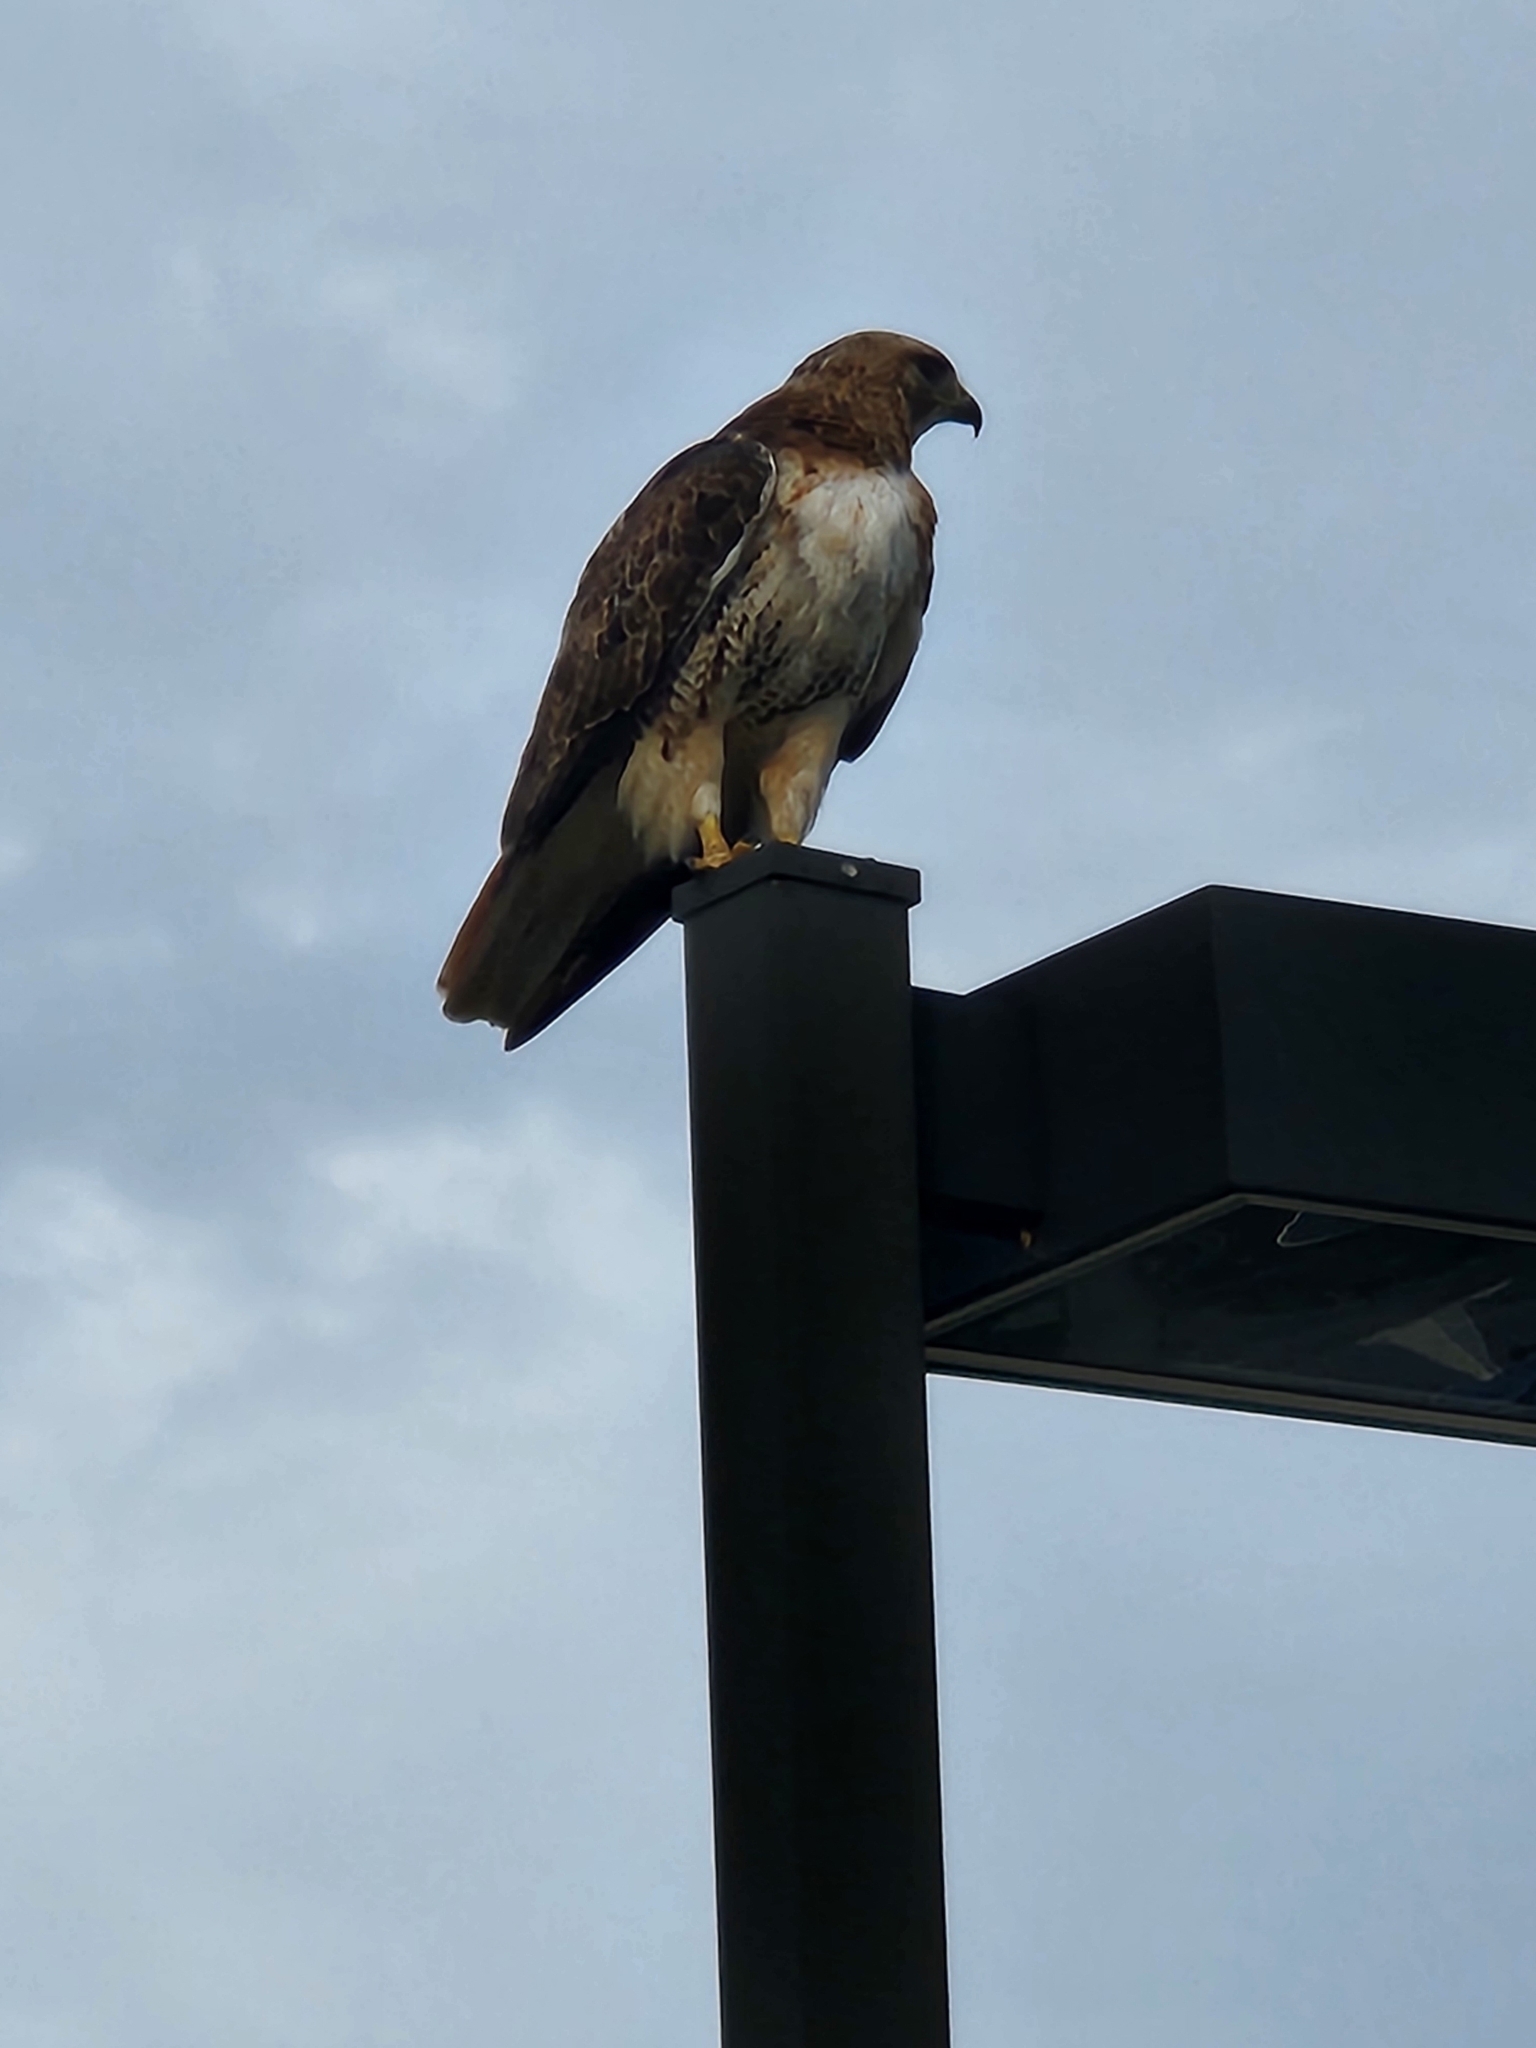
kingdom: Animalia
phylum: Chordata
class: Aves
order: Accipitriformes
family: Accipitridae
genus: Buteo
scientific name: Buteo jamaicensis
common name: Red-tailed hawk
